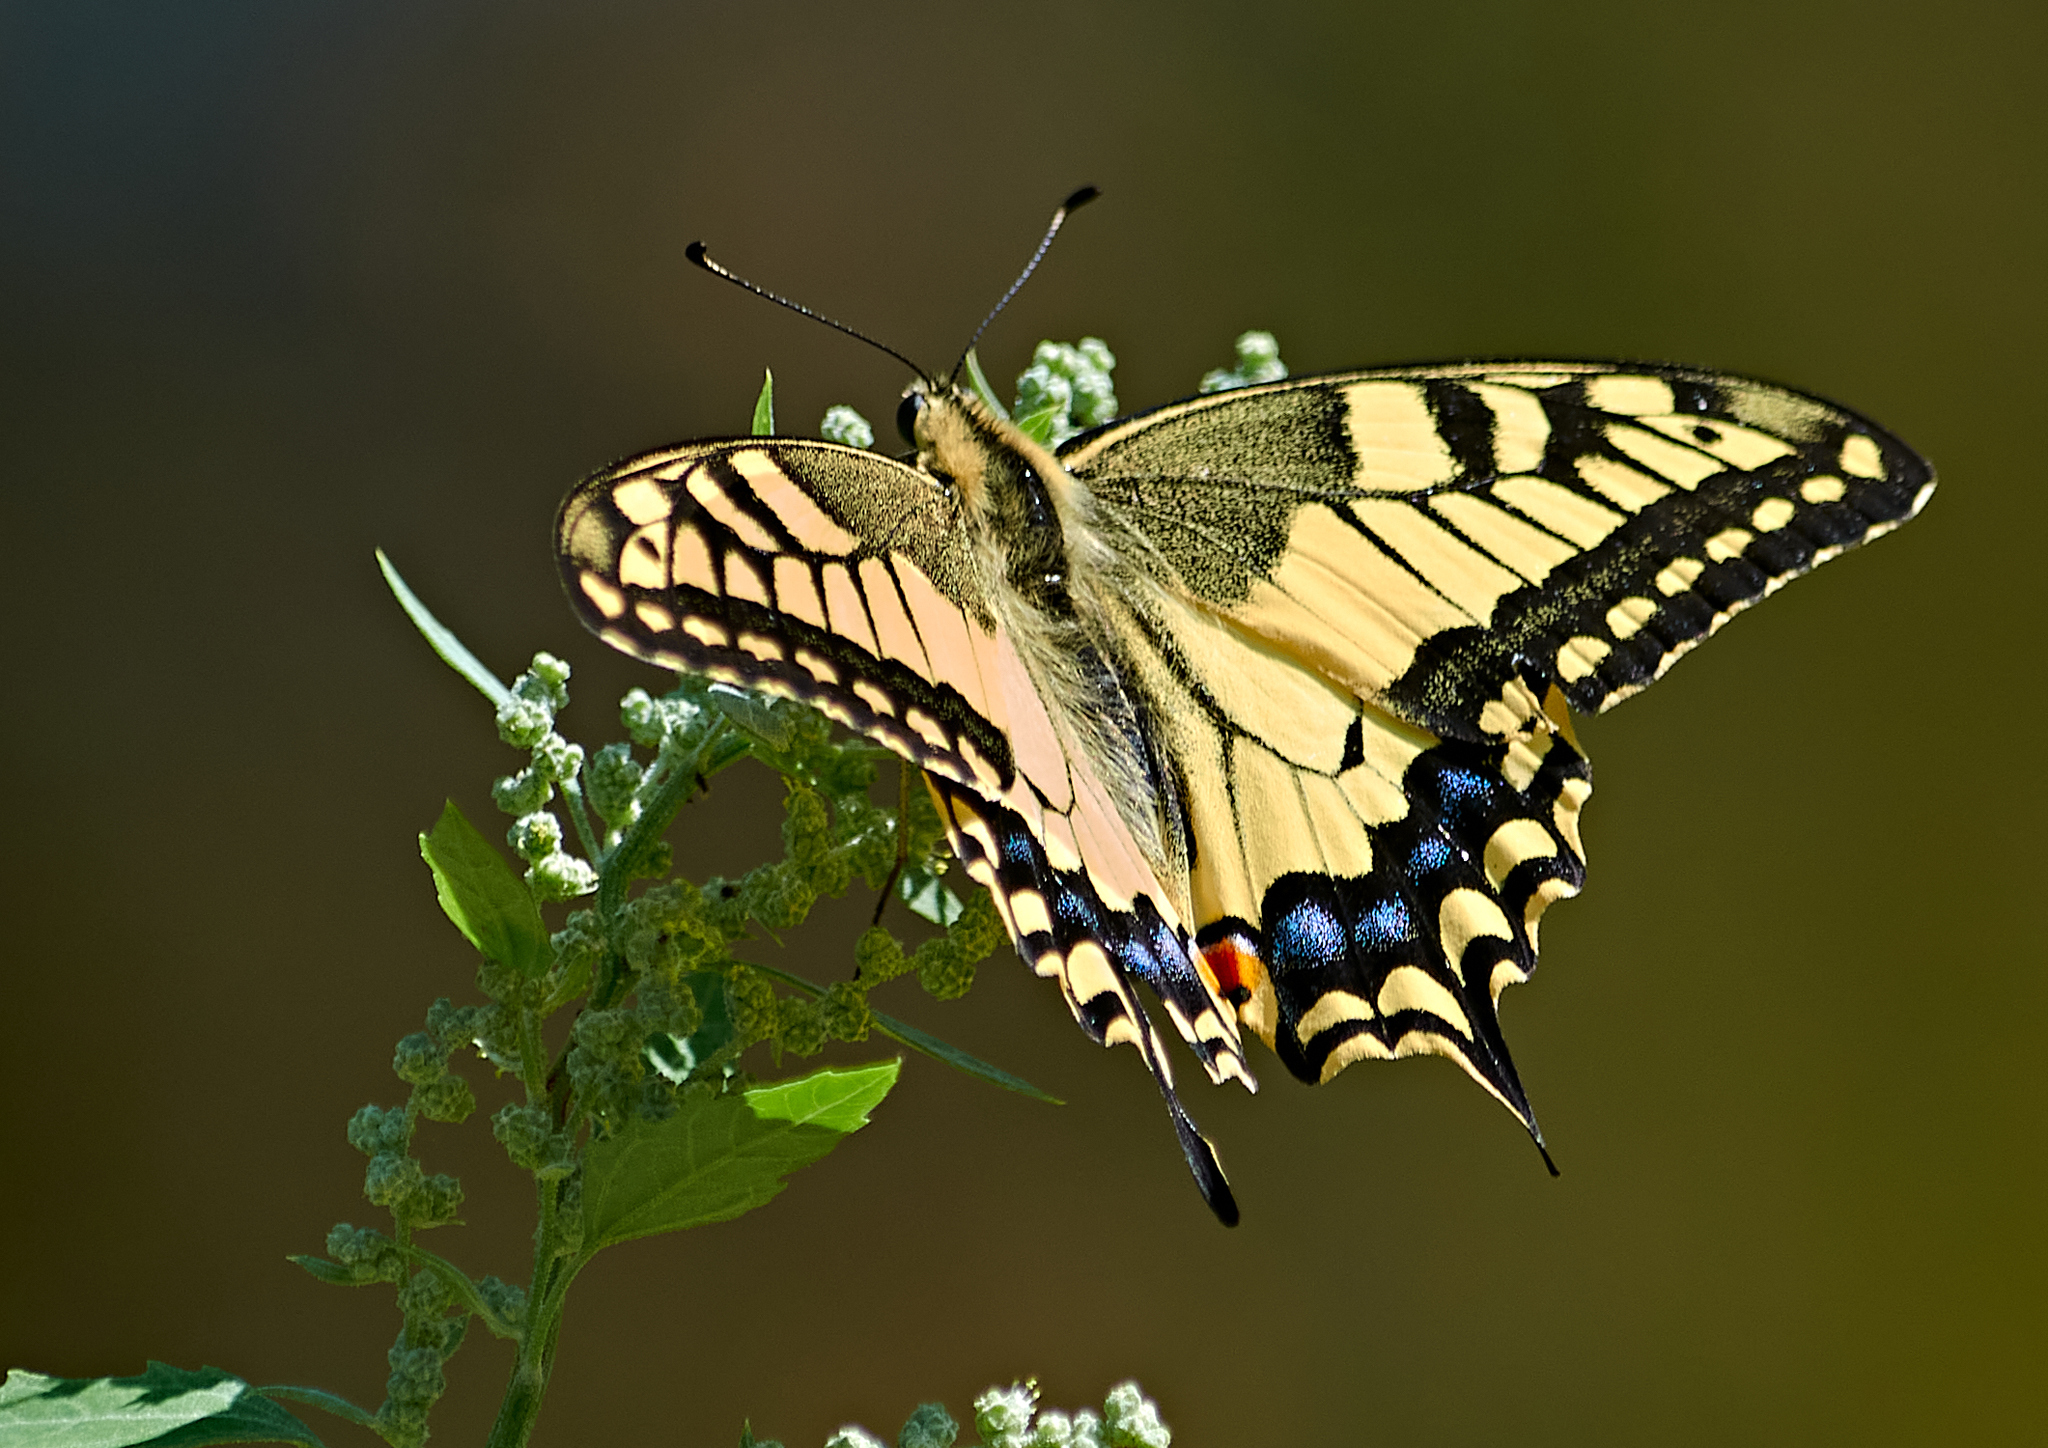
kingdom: Animalia
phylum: Arthropoda
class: Insecta
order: Lepidoptera
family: Papilionidae
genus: Papilio
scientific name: Papilio machaon
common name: Swallowtail
